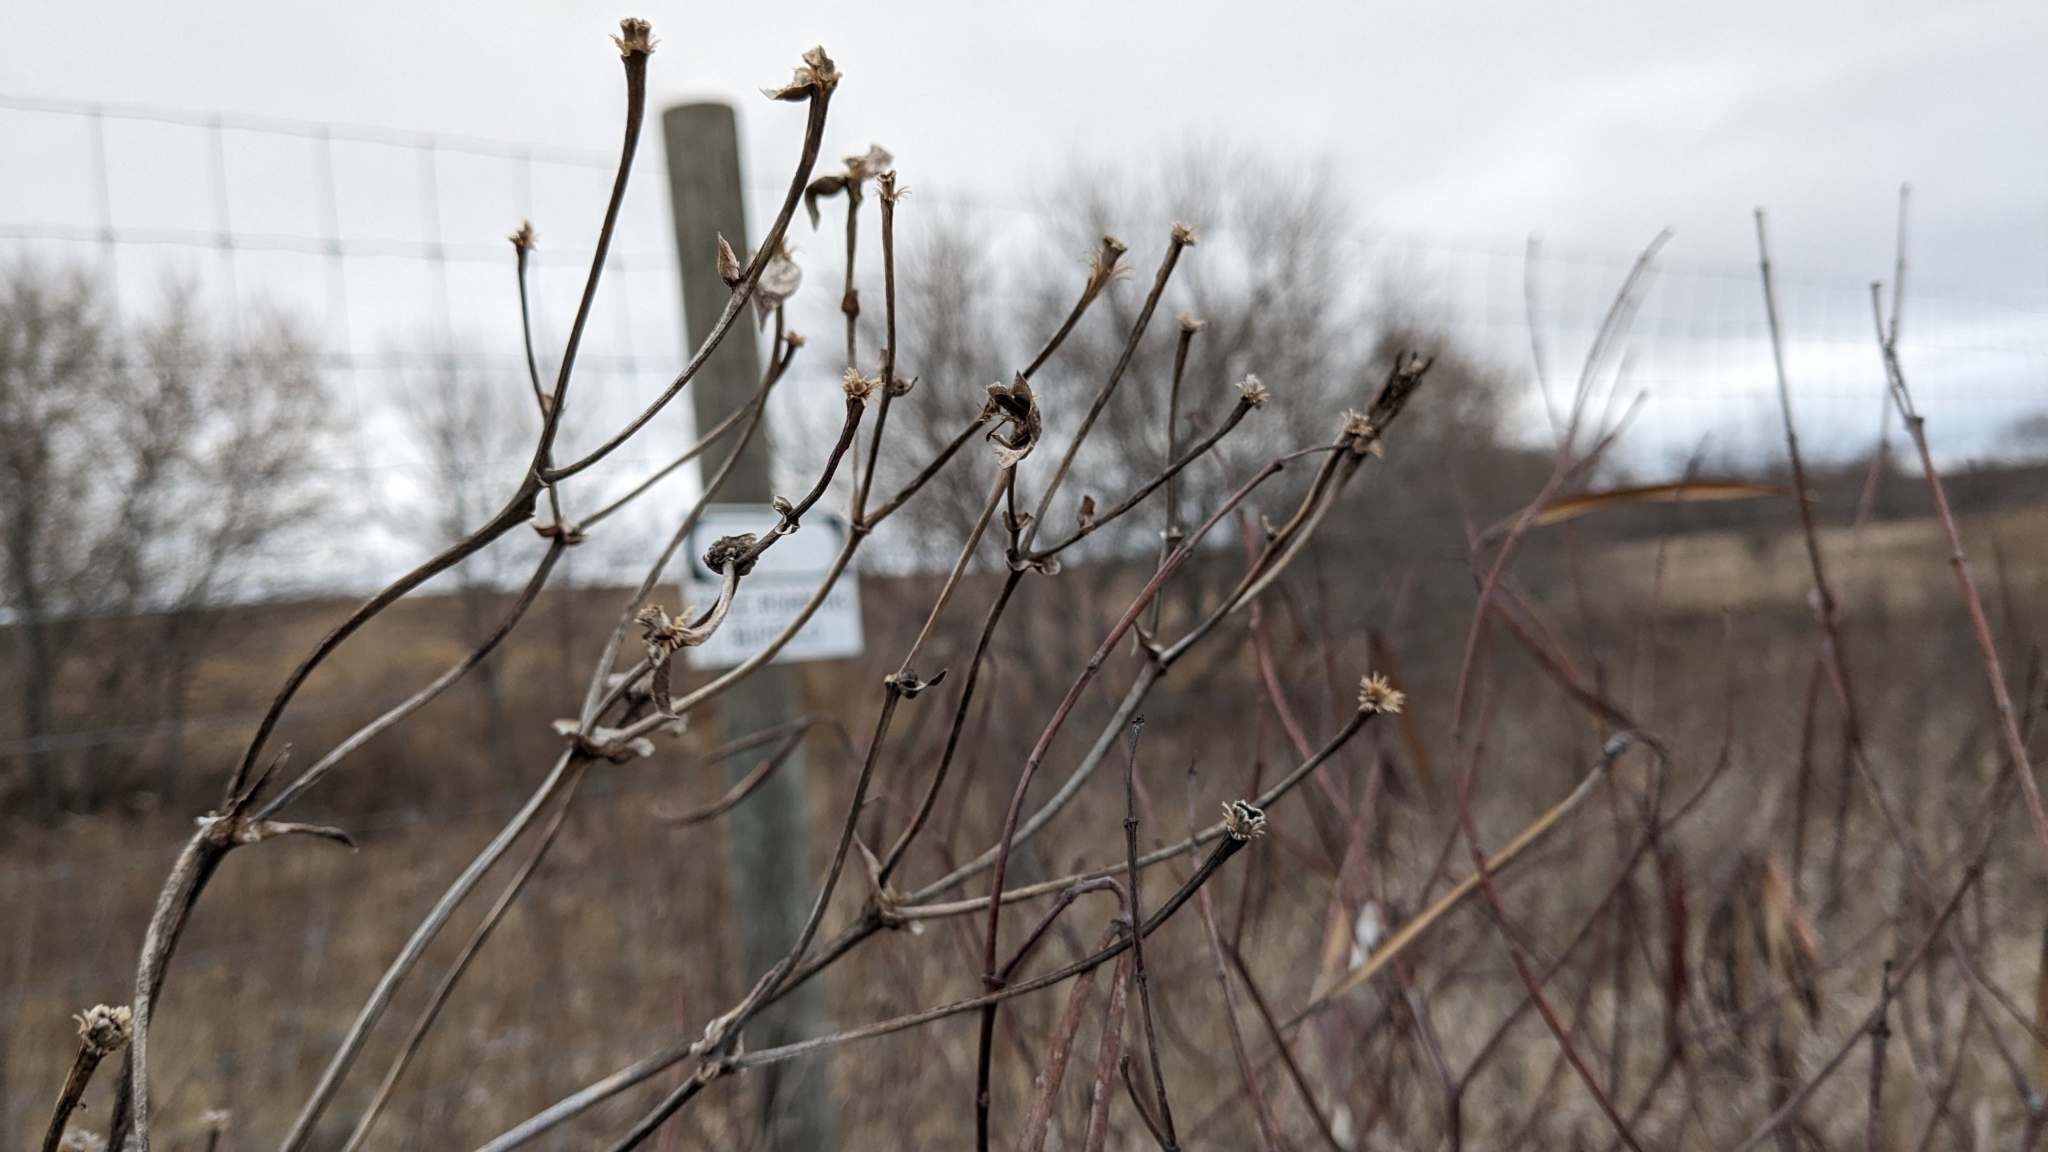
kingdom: Plantae
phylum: Tracheophyta
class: Magnoliopsida
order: Asterales
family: Asteraceae
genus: Silphium
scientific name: Silphium perfoliatum
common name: Cup-plant
